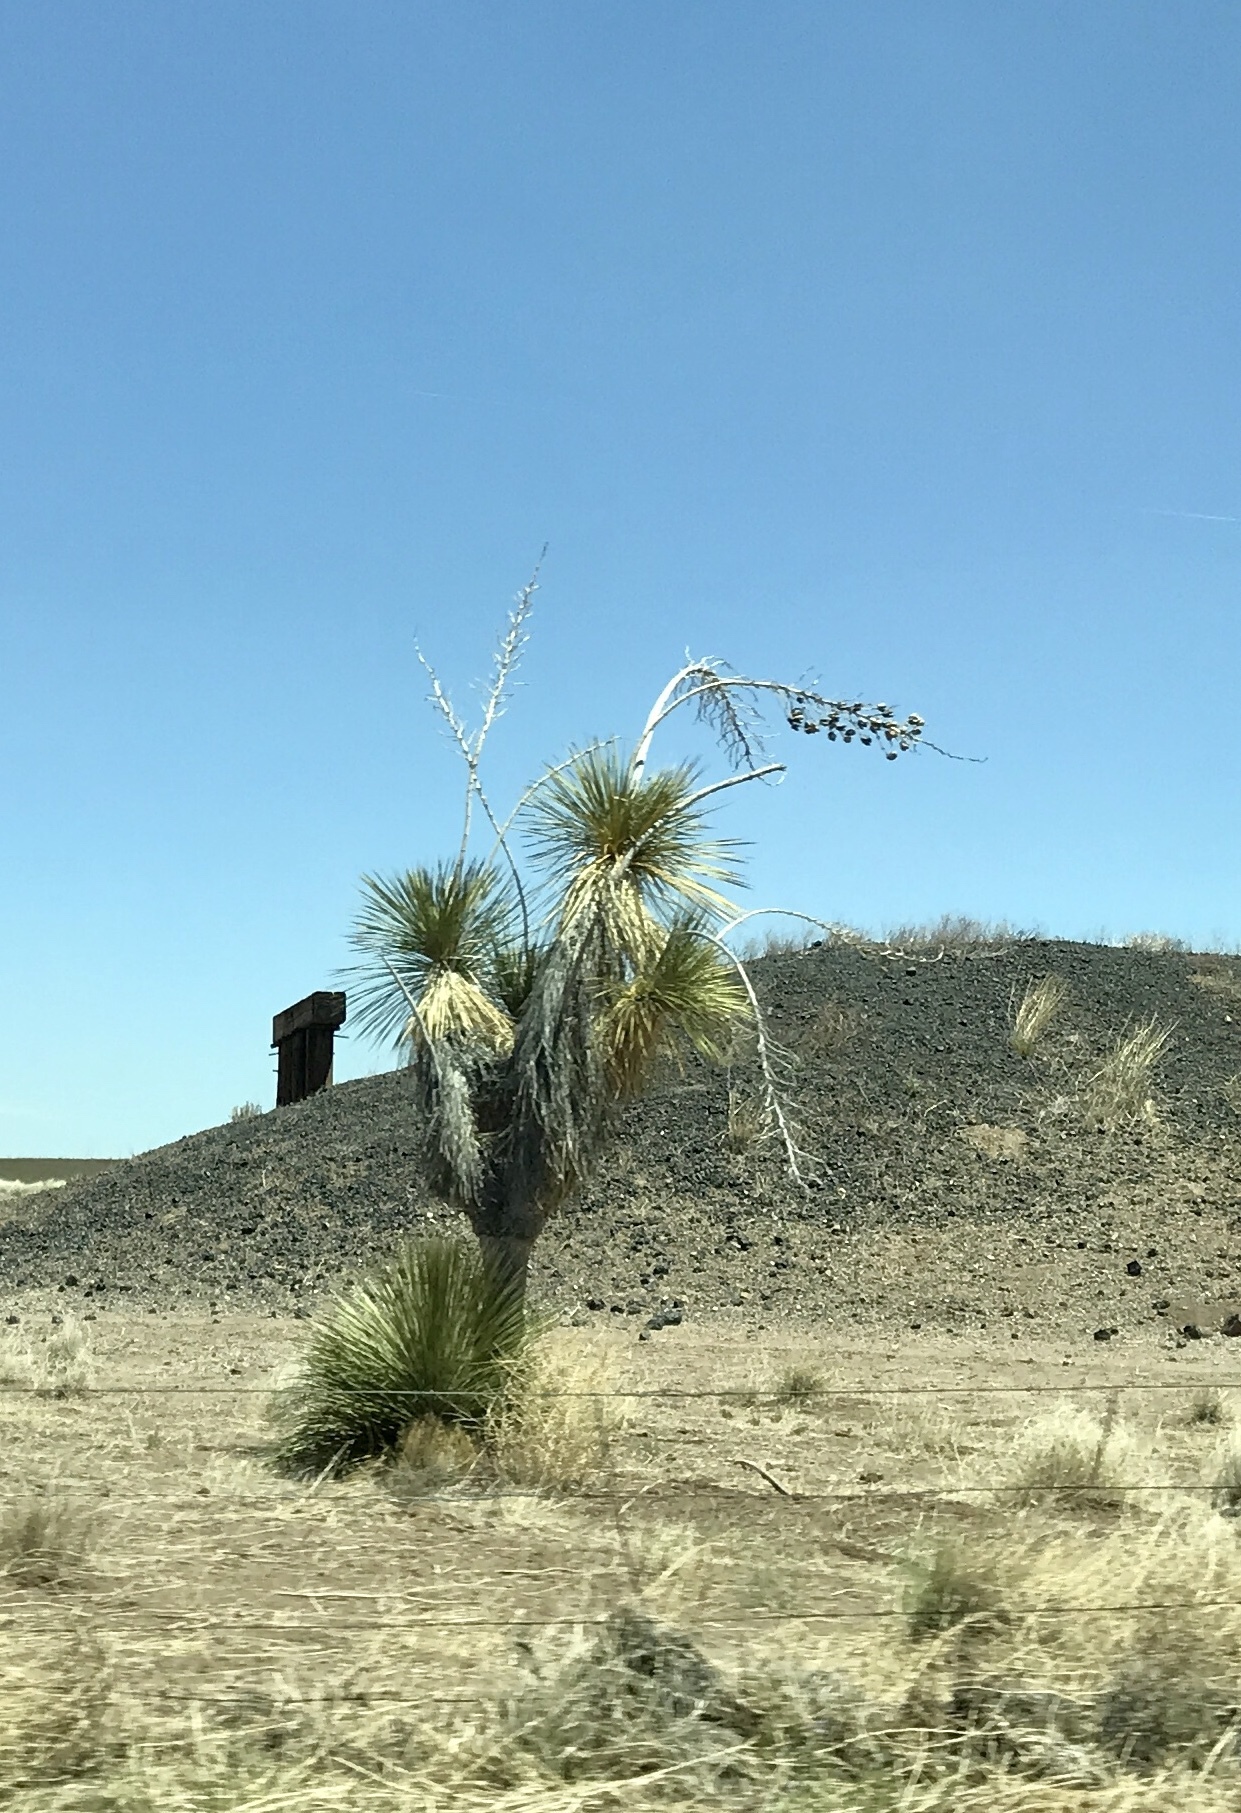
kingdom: Plantae
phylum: Tracheophyta
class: Liliopsida
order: Asparagales
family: Asparagaceae
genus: Yucca
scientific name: Yucca elata
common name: Palmella
